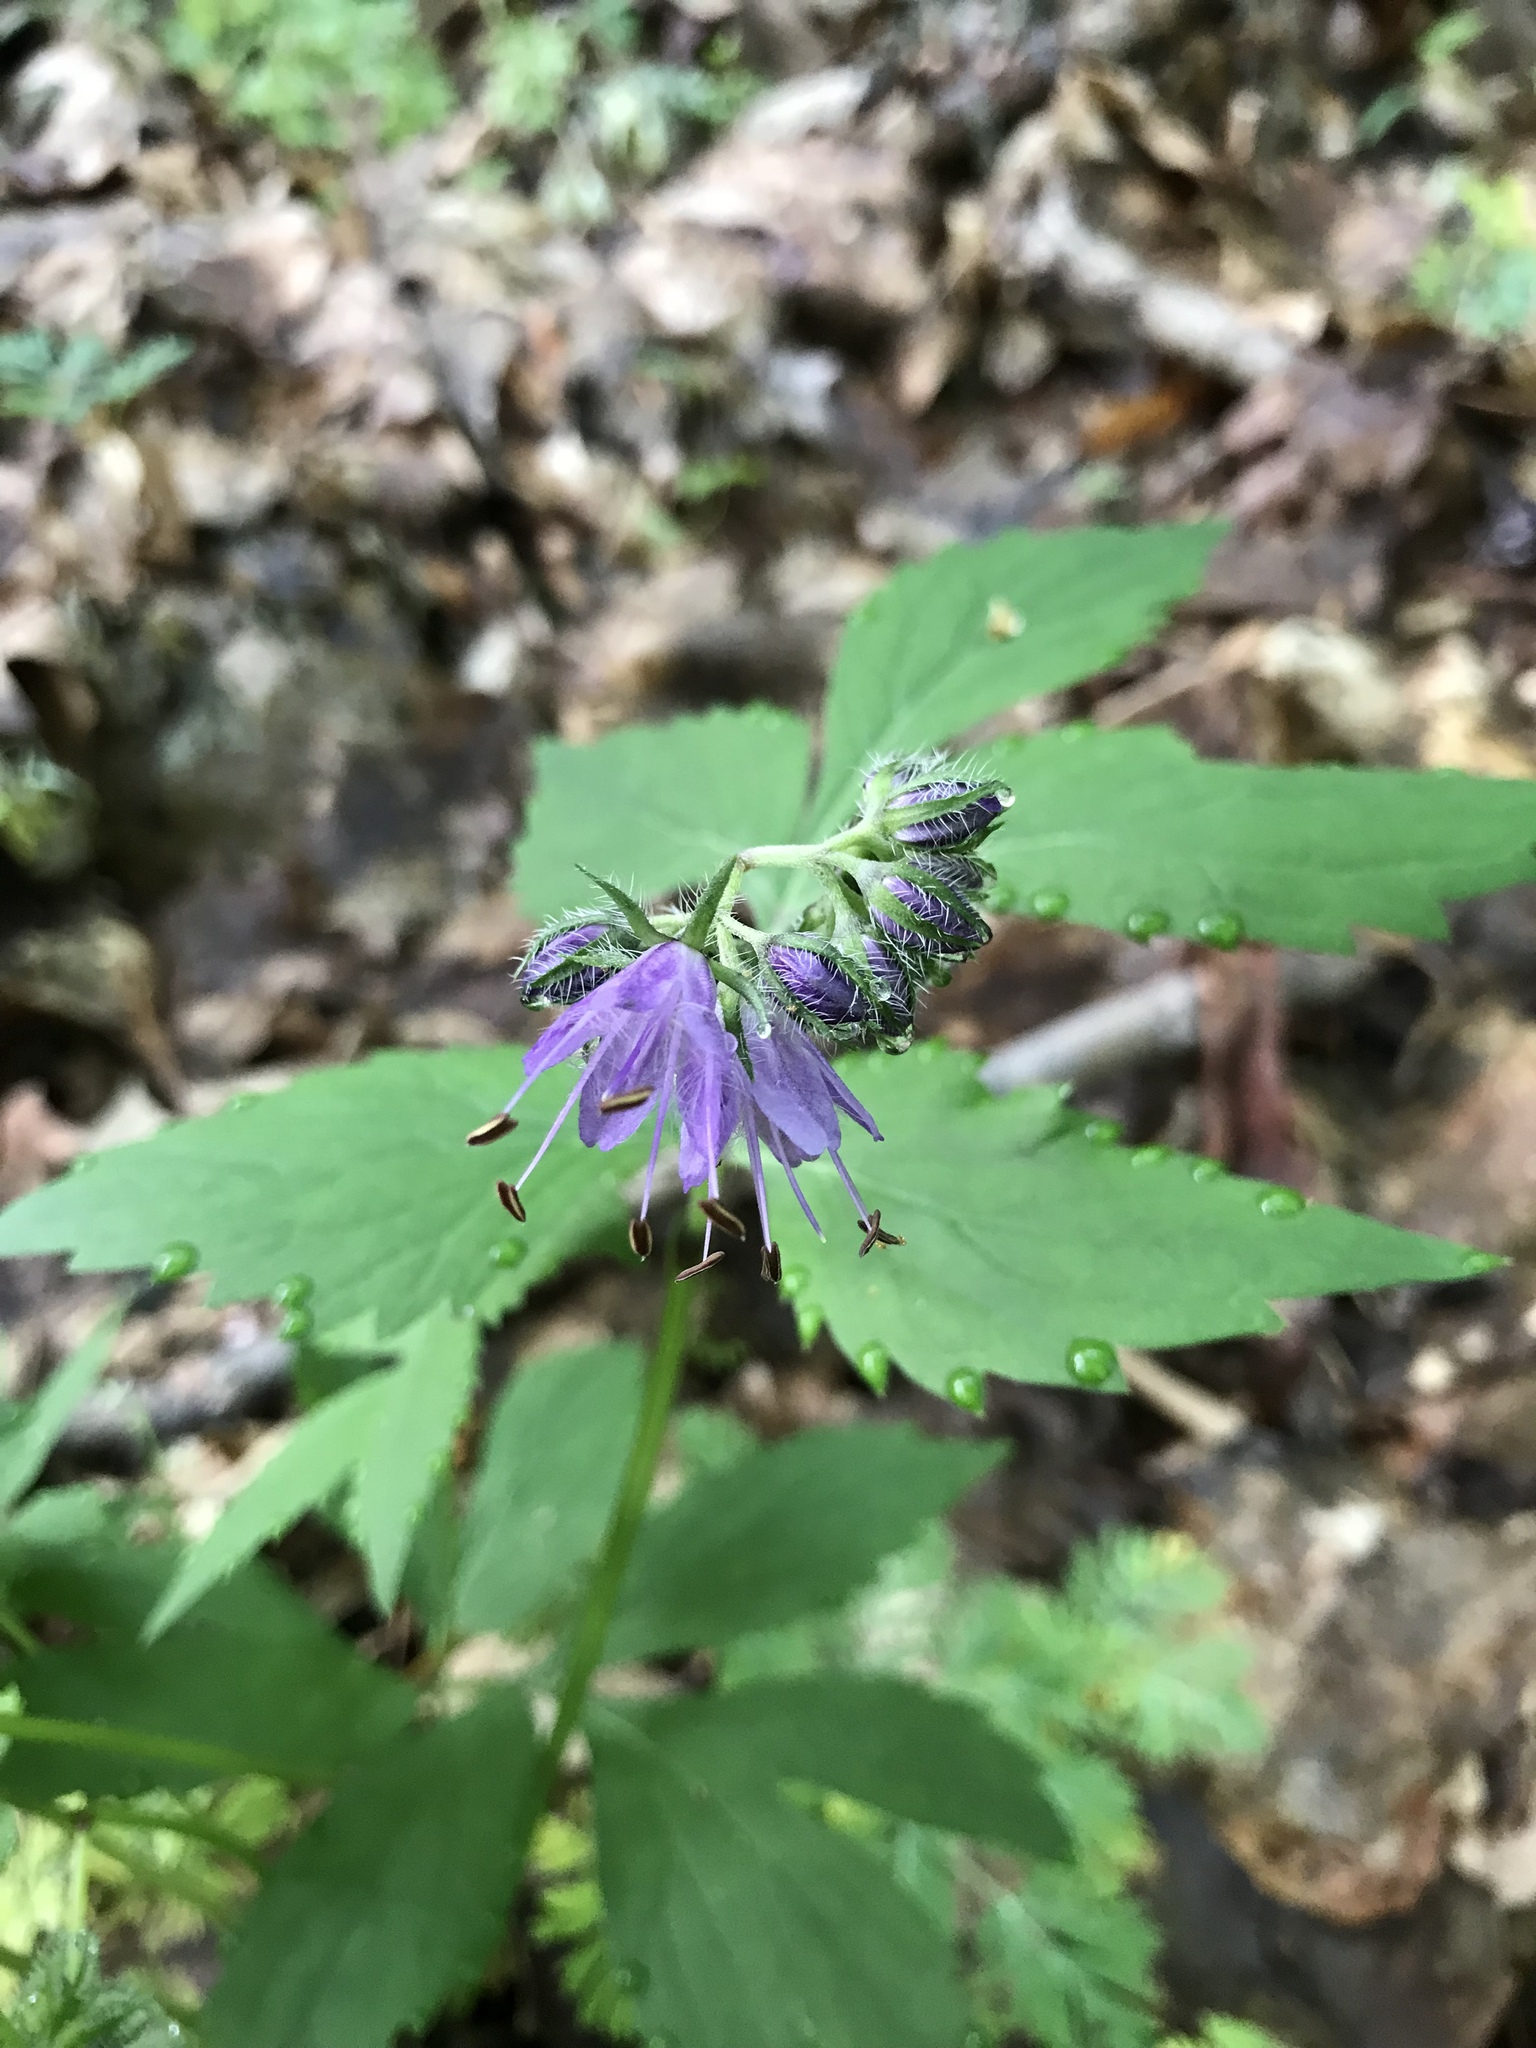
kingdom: Plantae
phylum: Tracheophyta
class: Magnoliopsida
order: Boraginales
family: Hydrophyllaceae
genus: Hydrophyllum
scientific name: Hydrophyllum virginianum
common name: Virginia waterleaf
